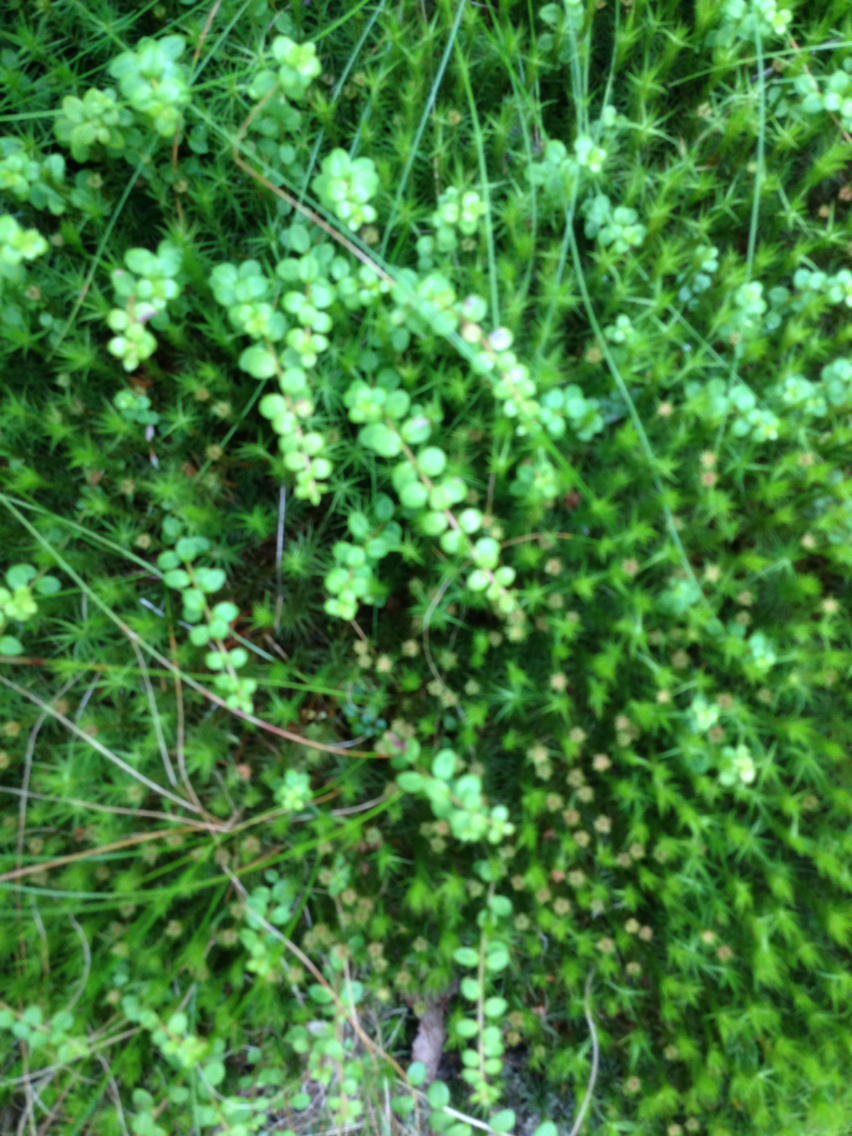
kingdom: Plantae
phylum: Tracheophyta
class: Magnoliopsida
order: Ericales
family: Ericaceae
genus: Gaultheria
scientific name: Gaultheria hispidula
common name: Cancer wintergreen
